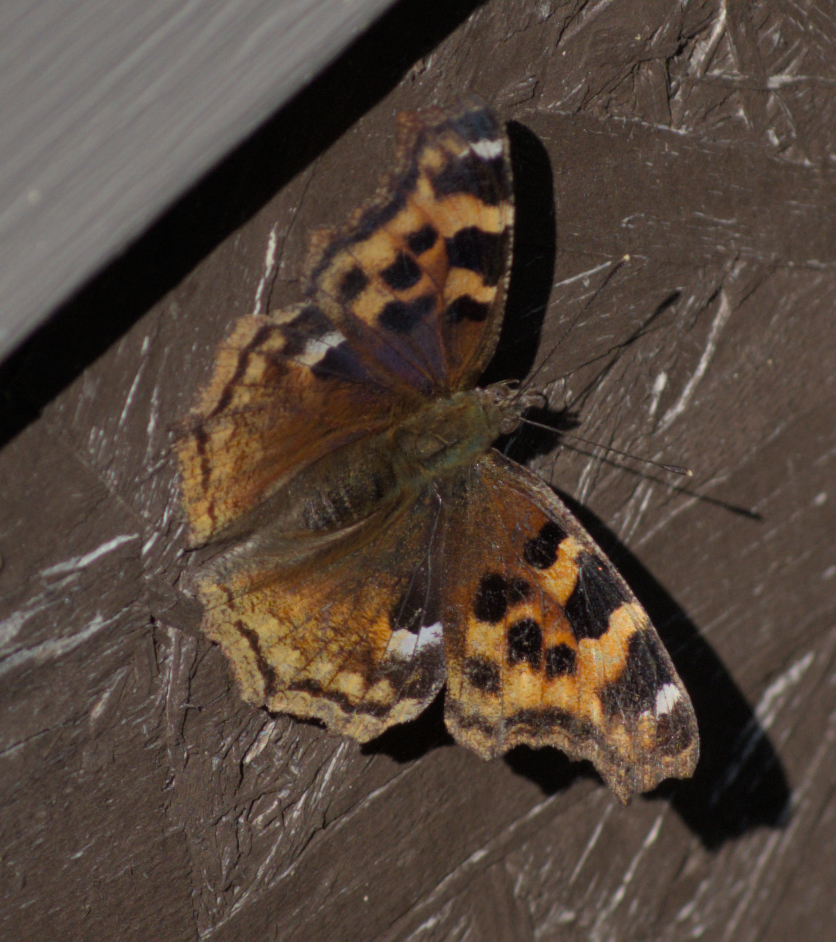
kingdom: Animalia
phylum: Arthropoda
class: Insecta
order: Lepidoptera
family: Nymphalidae
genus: Polygonia
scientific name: Polygonia vaualbum
